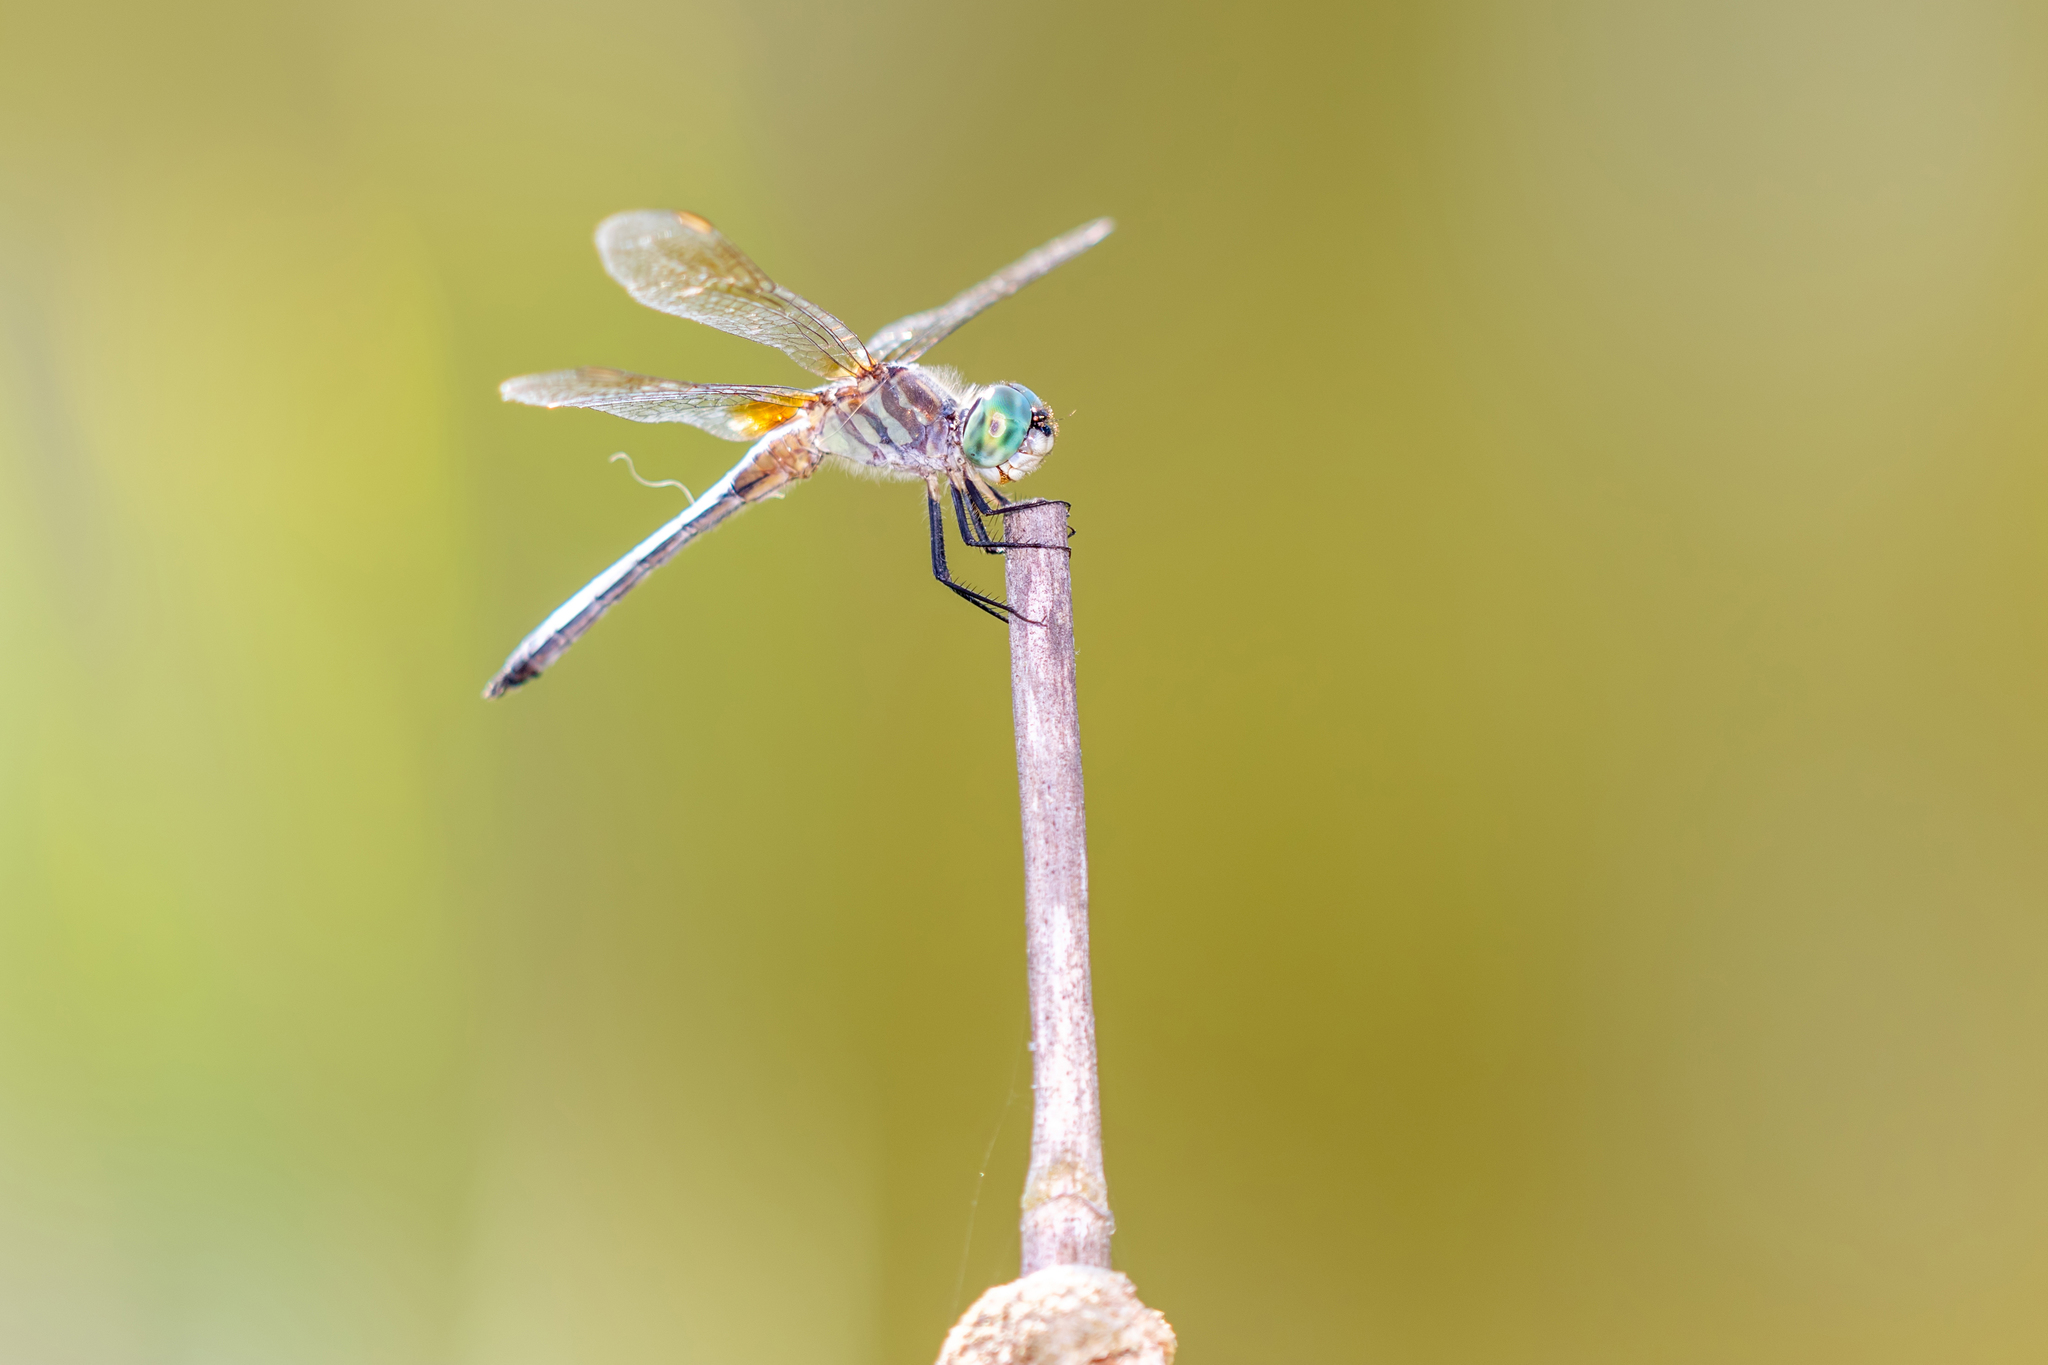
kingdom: Animalia
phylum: Arthropoda
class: Insecta
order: Odonata
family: Libellulidae
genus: Pachydiplax
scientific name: Pachydiplax longipennis
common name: Blue dasher
